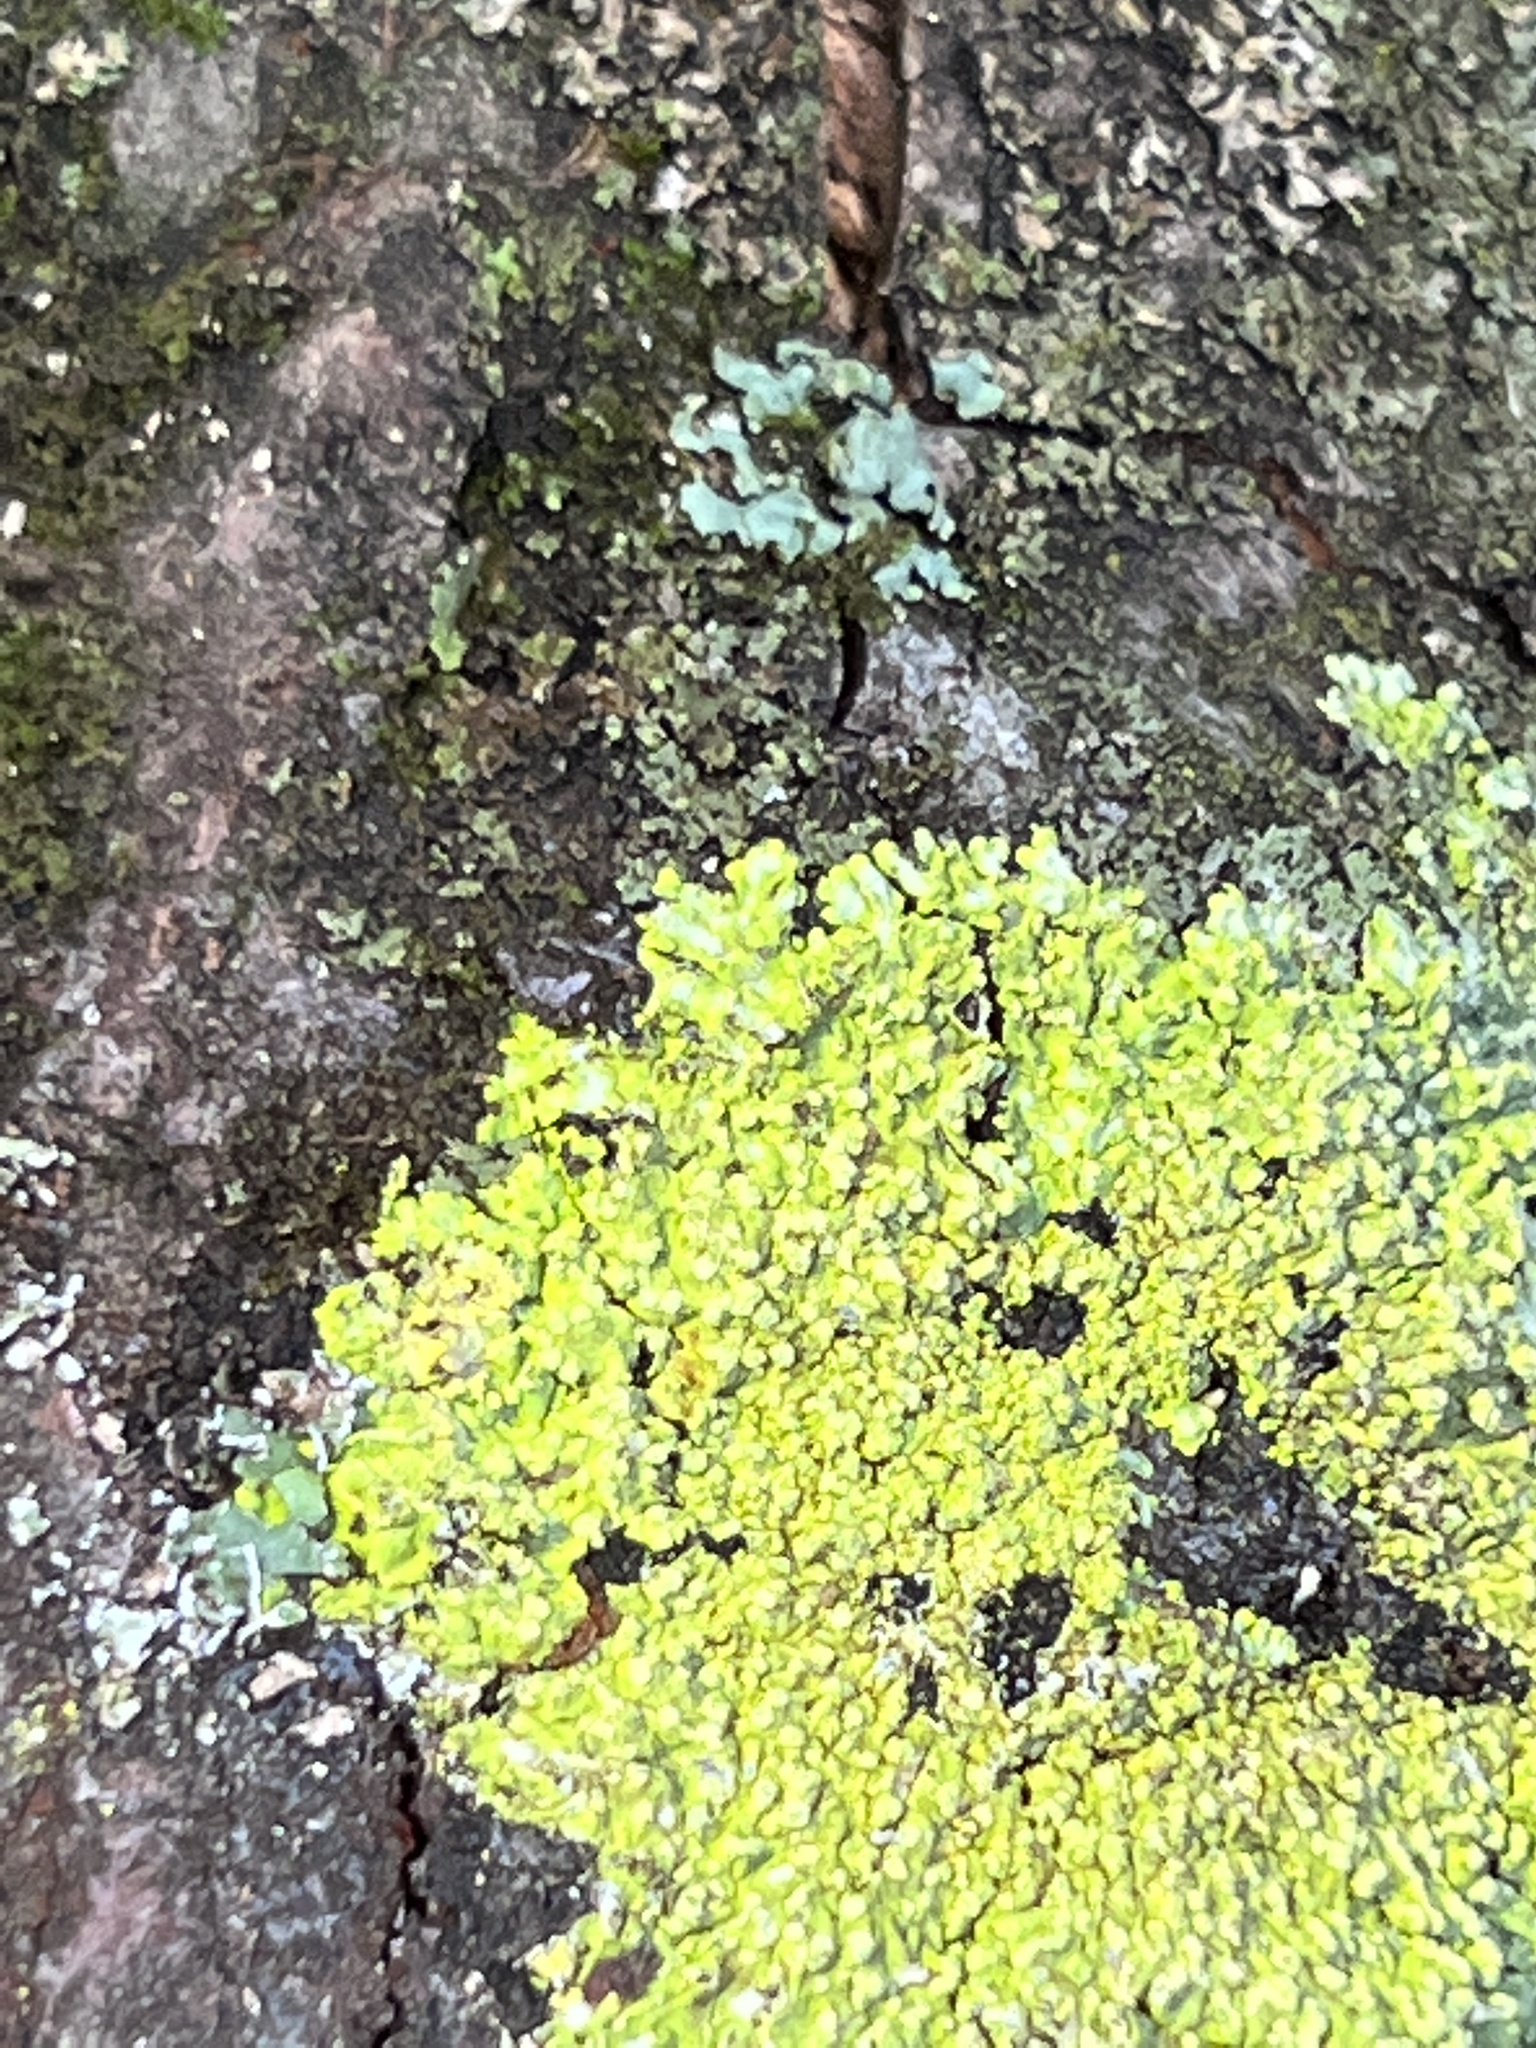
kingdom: Fungi
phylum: Ascomycota
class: Lecanoromycetes
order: Caliciales
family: Caliciaceae
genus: Pyxine
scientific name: Pyxine subcinerea
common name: Mustard lichen
